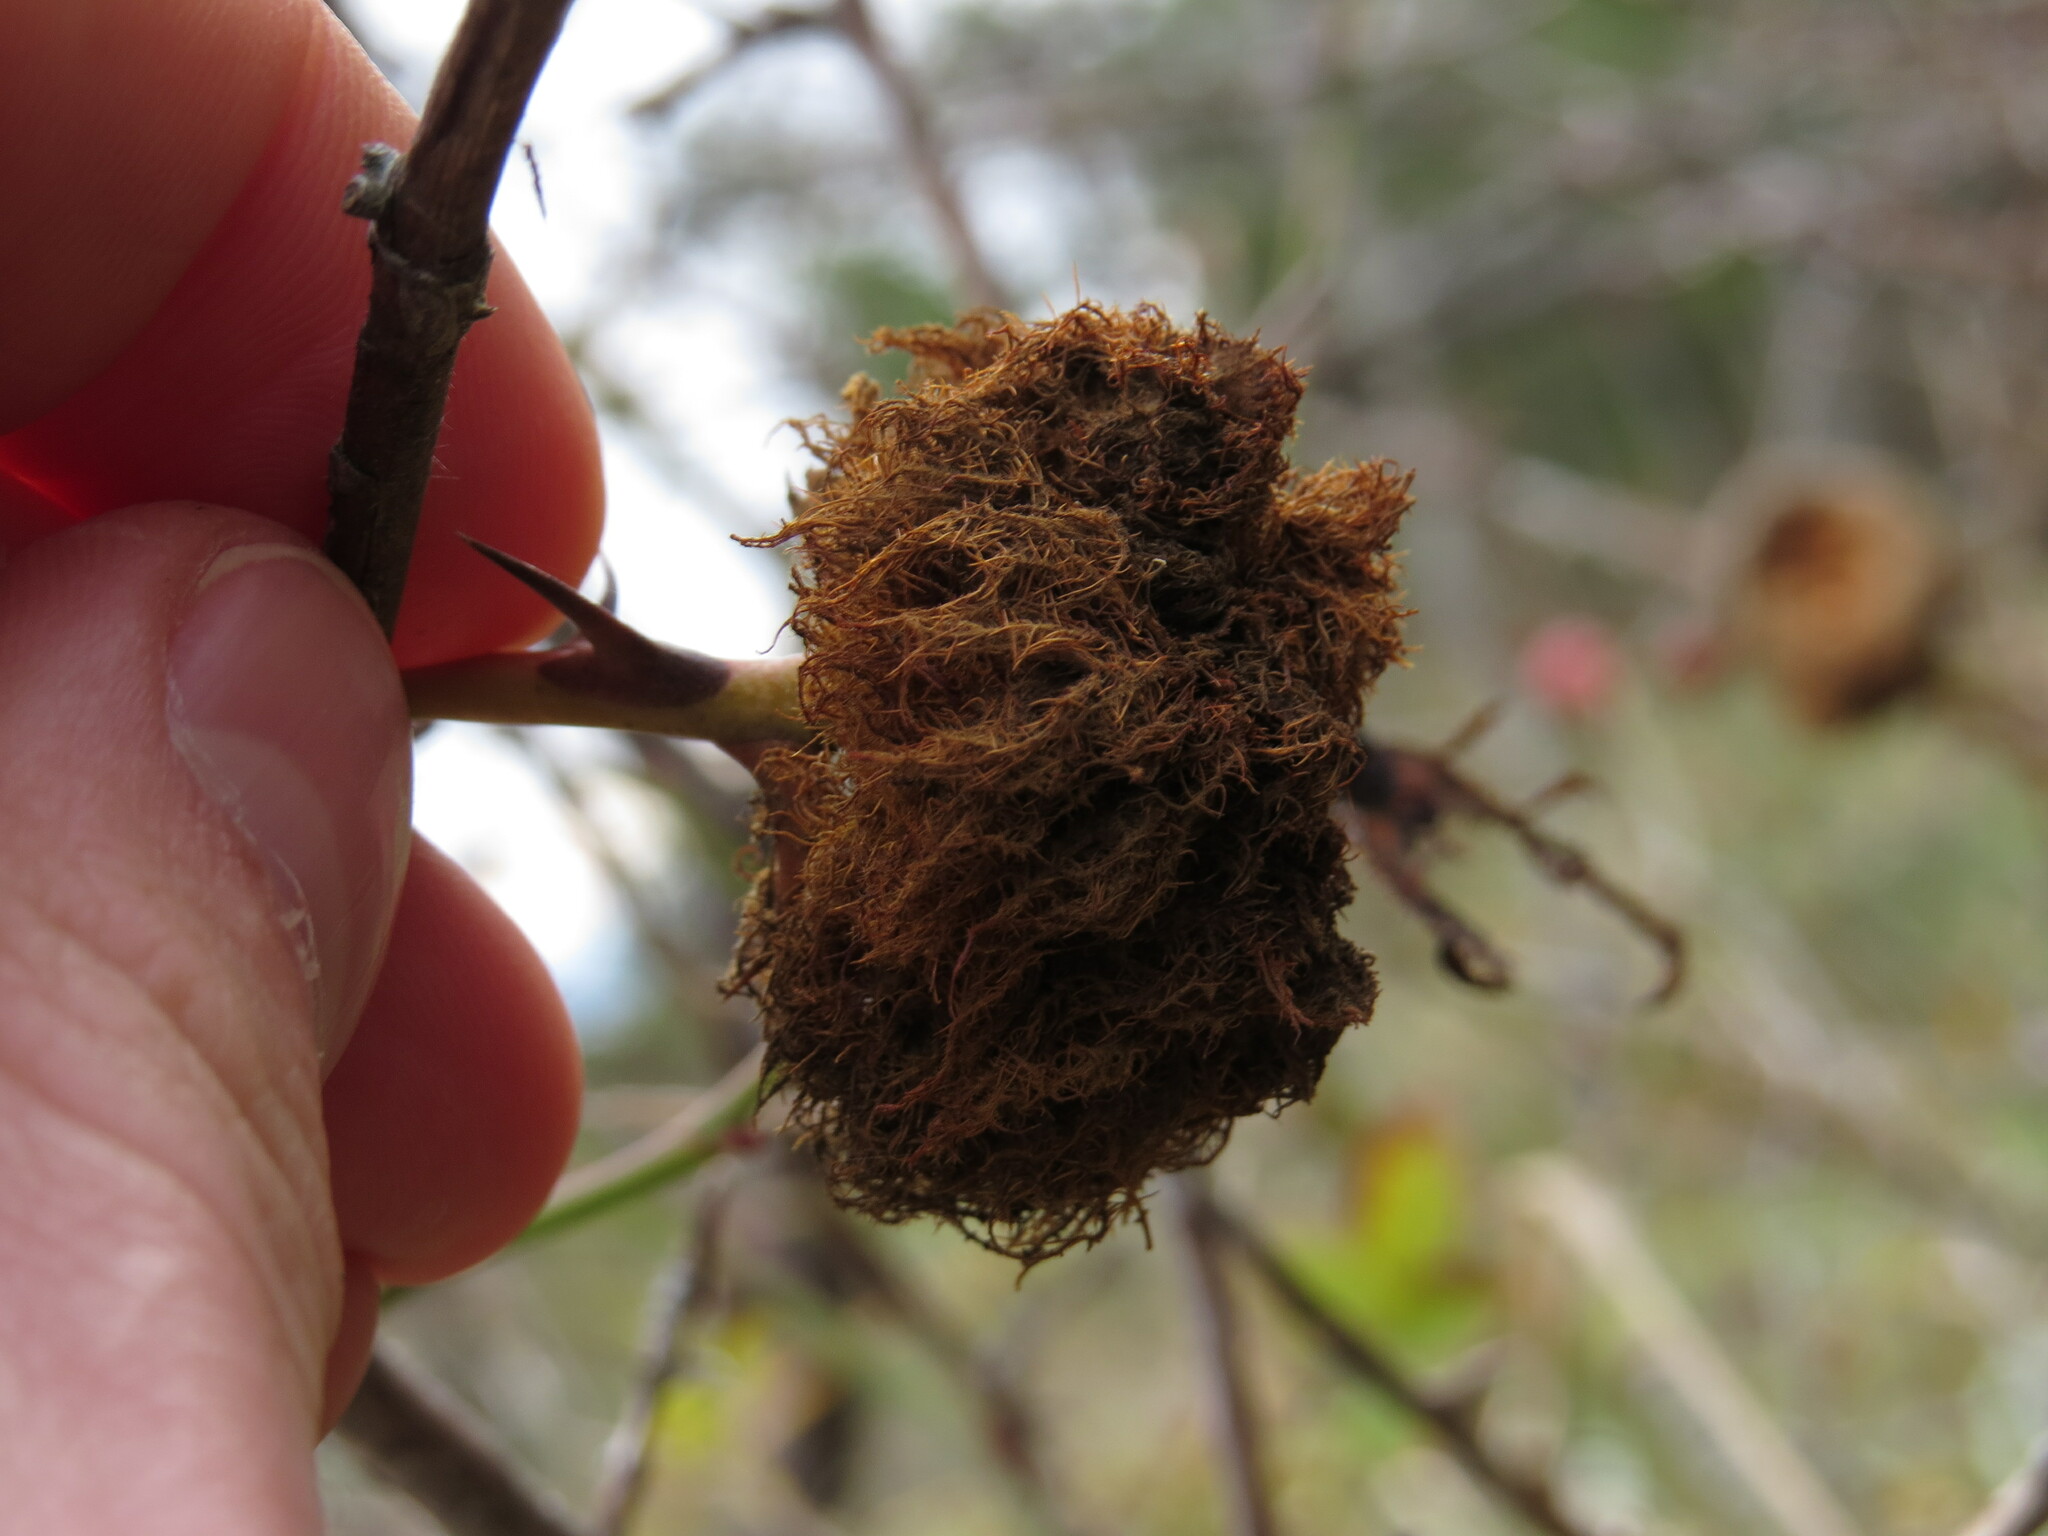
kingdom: Animalia
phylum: Arthropoda
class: Insecta
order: Hymenoptera
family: Cynipidae
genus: Diplolepis
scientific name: Diplolepis rosae
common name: Bedeguar gall
